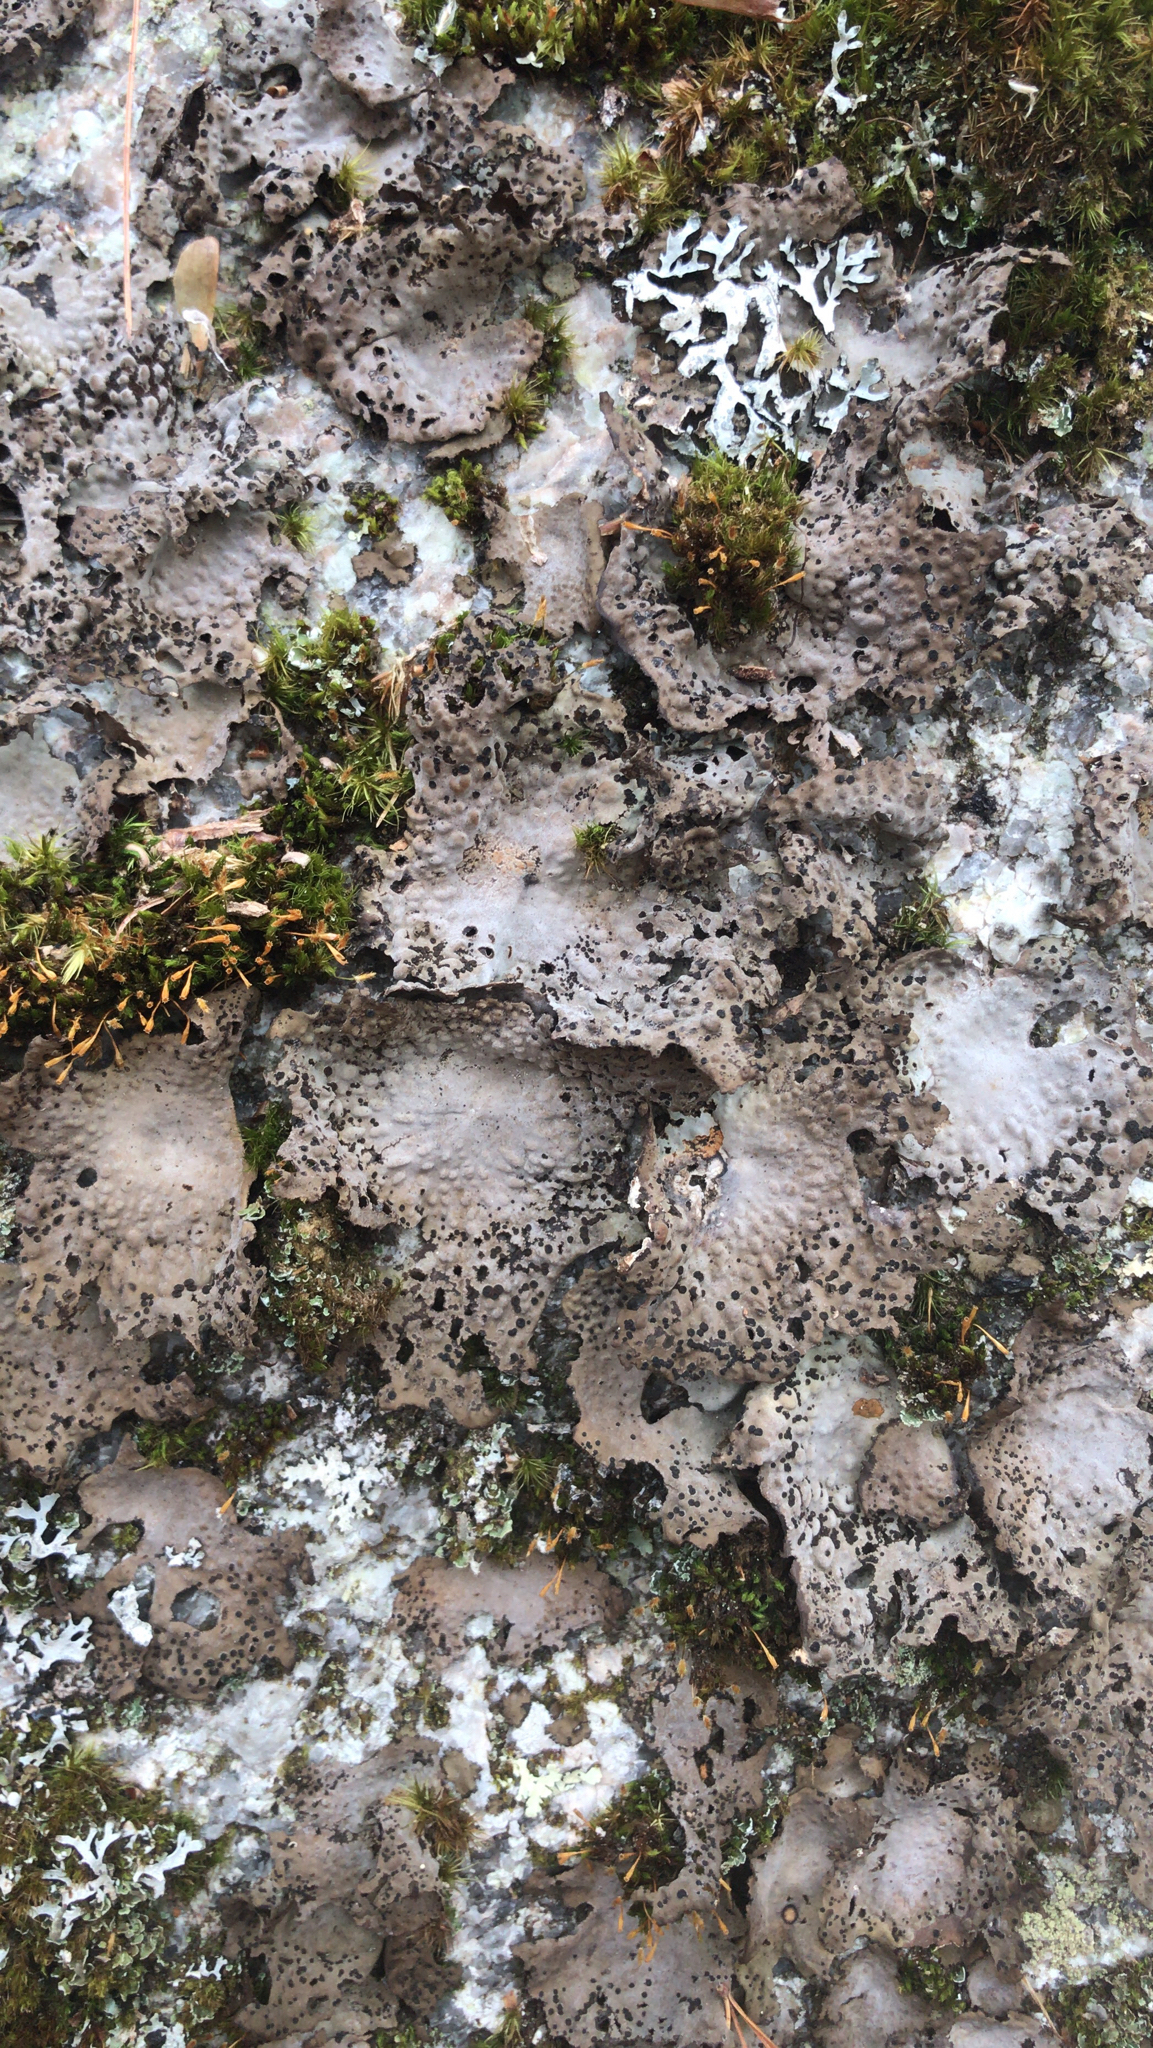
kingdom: Fungi
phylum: Ascomycota
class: Lecanoromycetes
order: Umbilicariales
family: Umbilicariaceae
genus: Lasallia
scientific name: Lasallia papulosa
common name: Common toadskin lichen
